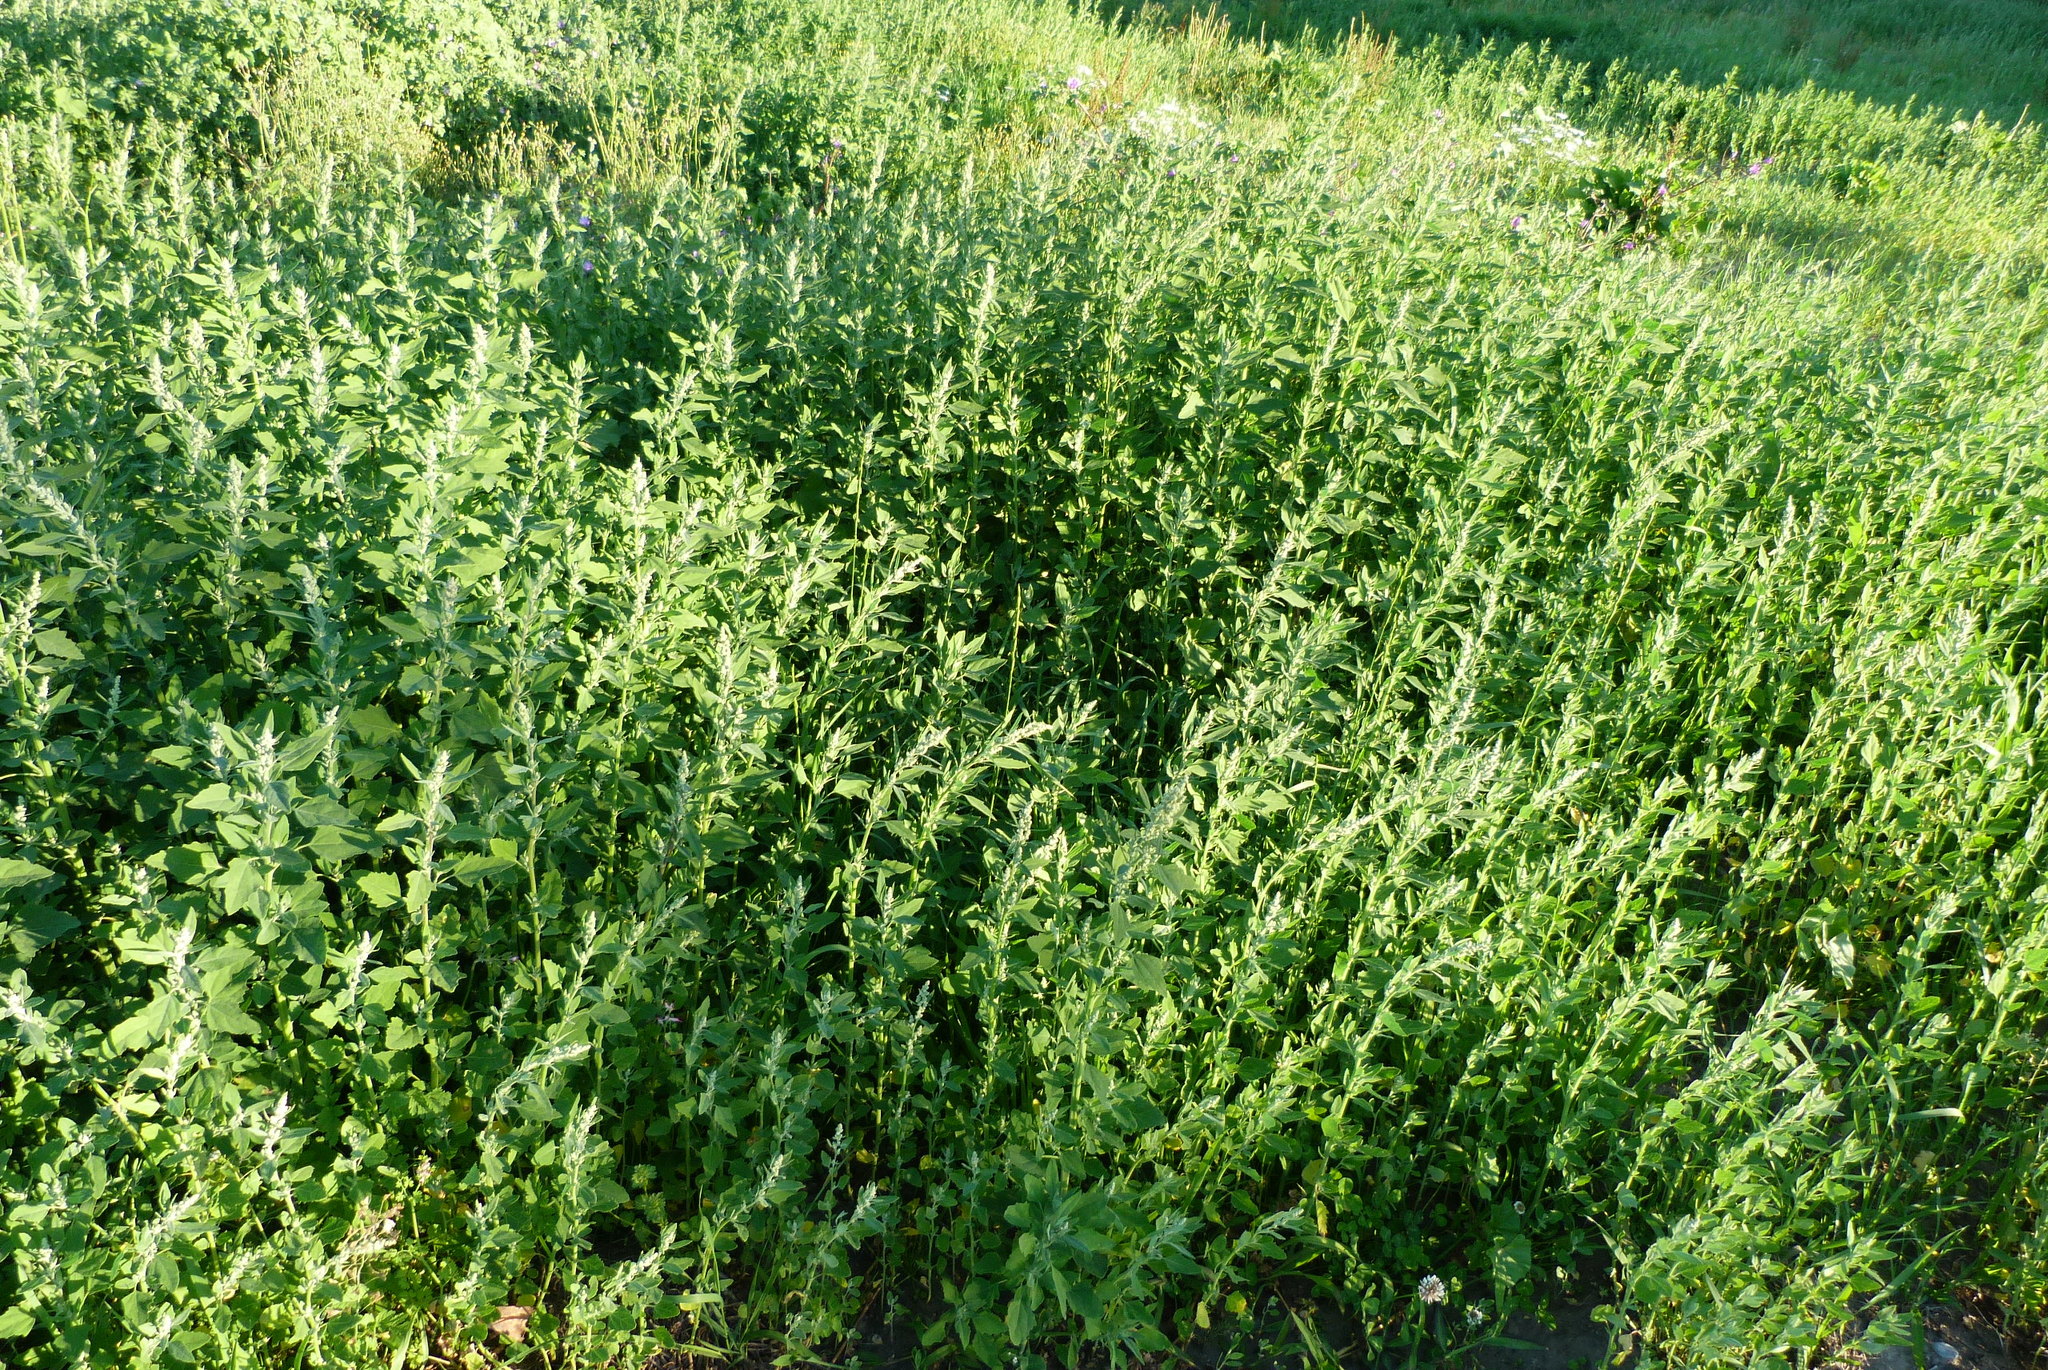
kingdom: Plantae
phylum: Tracheophyta
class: Magnoliopsida
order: Caryophyllales
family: Amaranthaceae
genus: Chenopodium
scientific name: Chenopodium album
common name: Fat-hen
